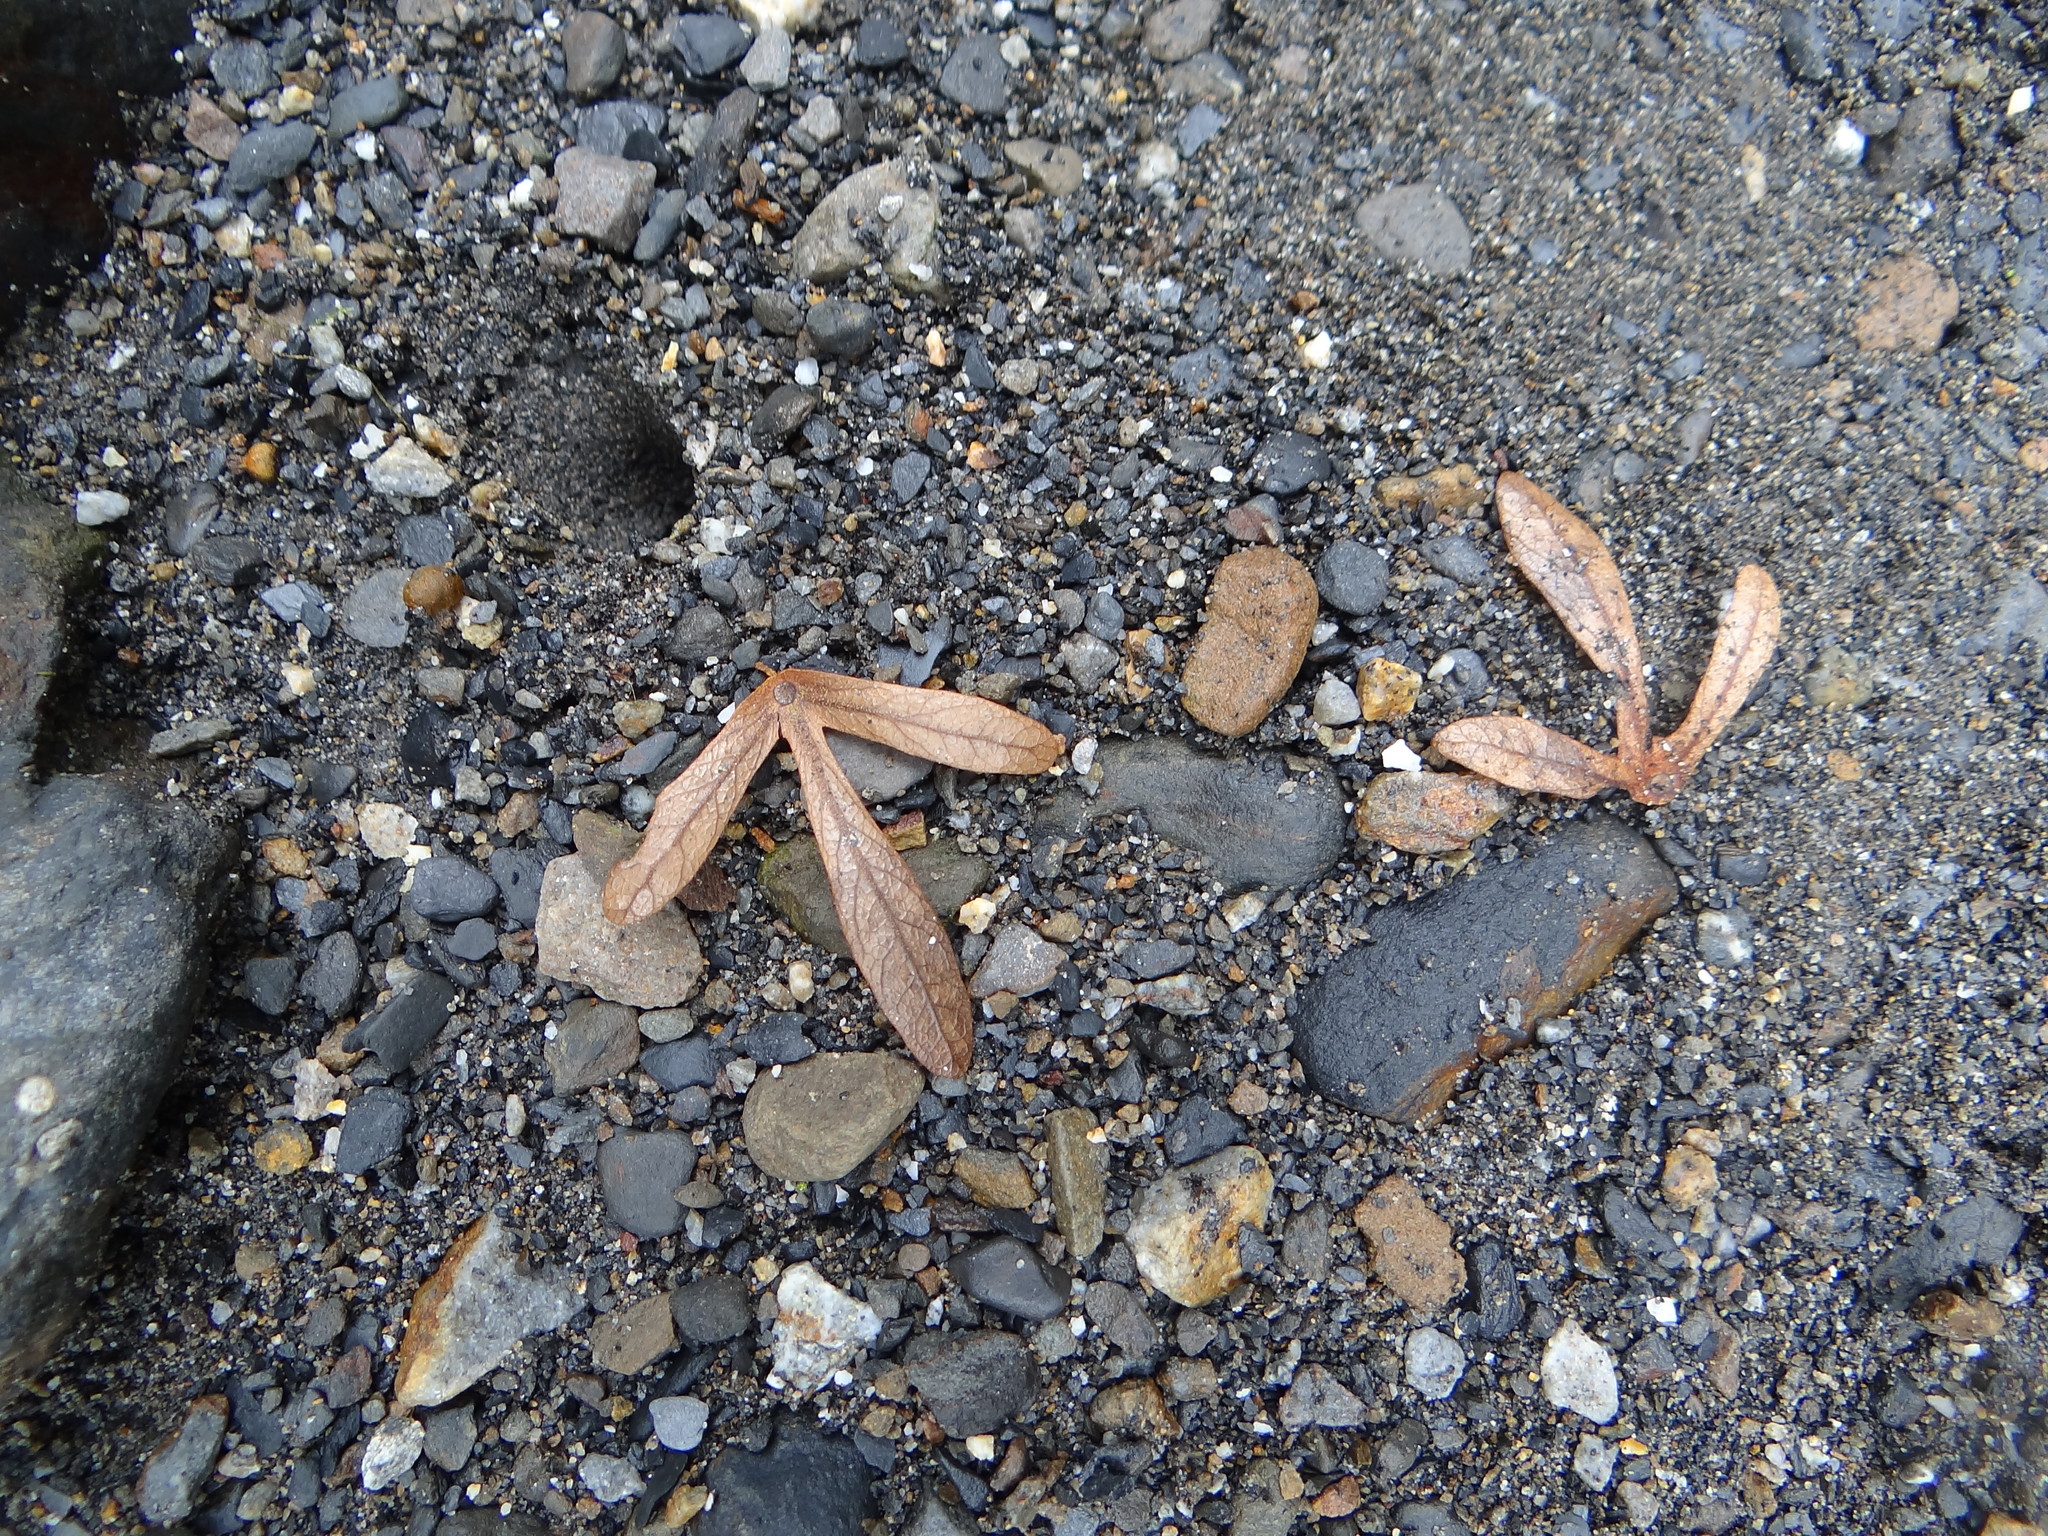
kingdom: Plantae
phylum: Tracheophyta
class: Magnoliopsida
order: Fagales
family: Juglandaceae
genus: Engelhardia
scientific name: Engelhardia roxburghiana
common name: Golden malay beam
